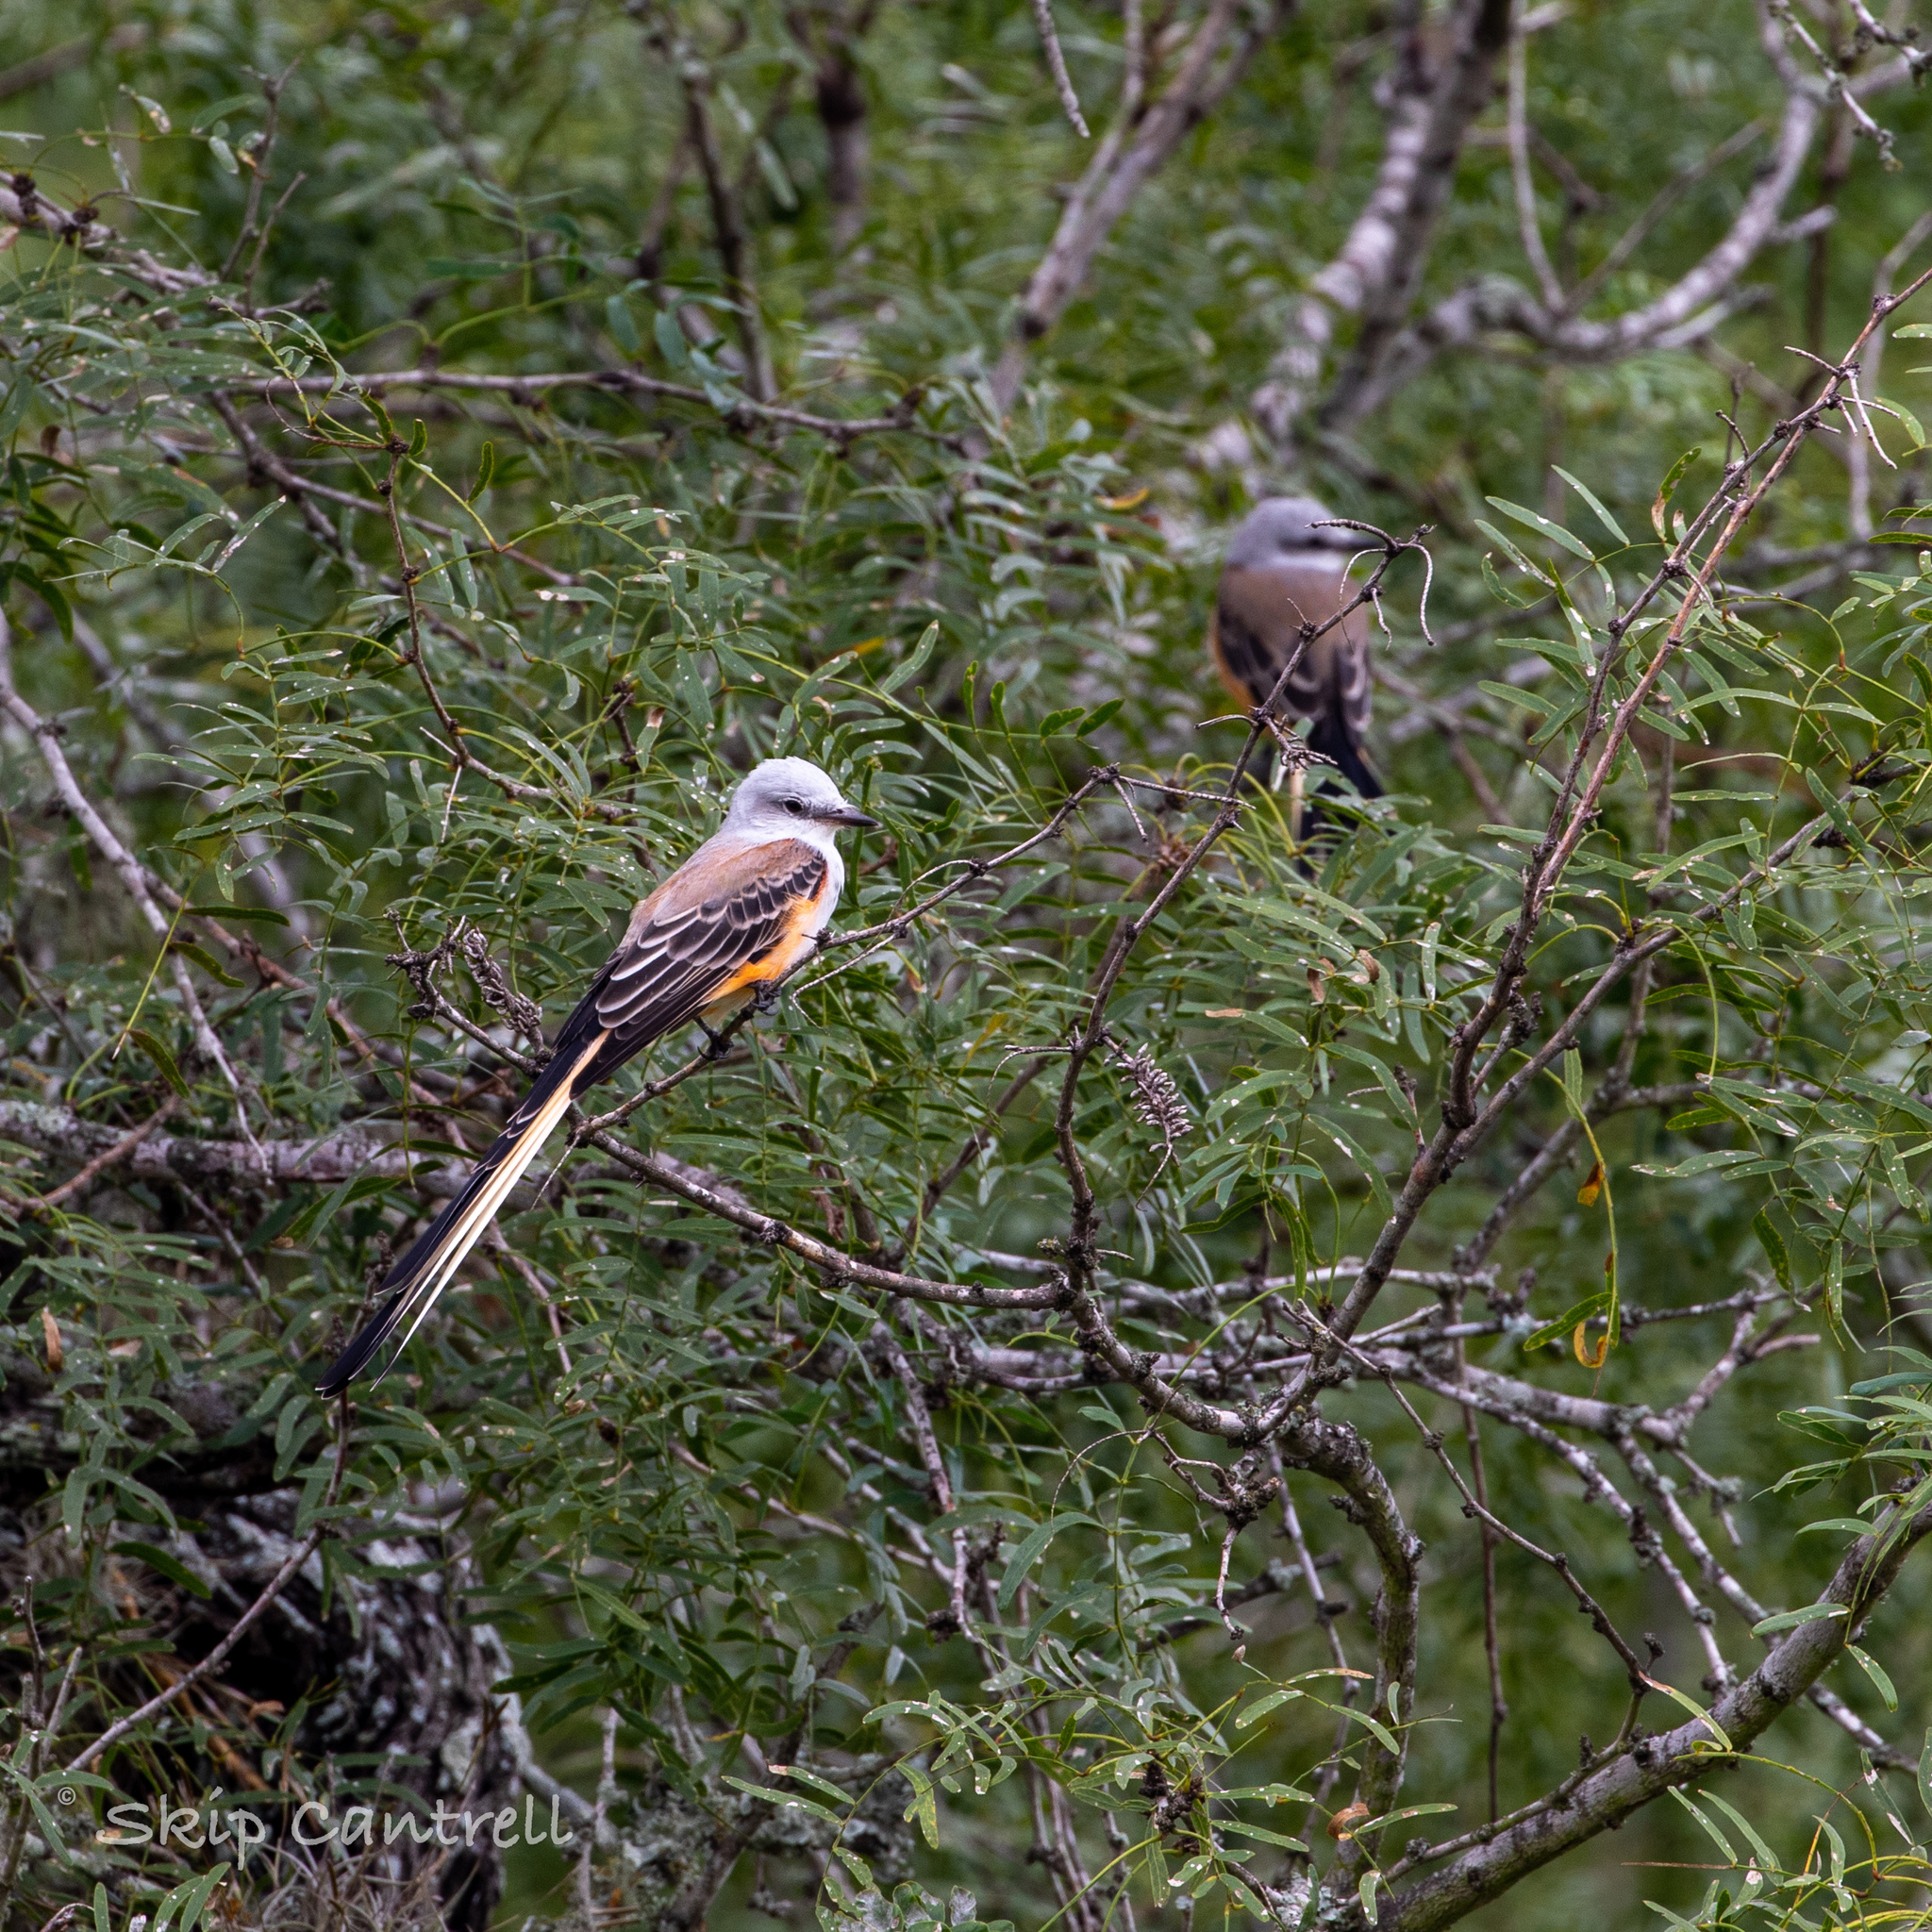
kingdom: Animalia
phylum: Chordata
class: Aves
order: Passeriformes
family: Tyrannidae
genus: Tyrannus
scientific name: Tyrannus forficatus
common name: Scissor-tailed flycatcher
